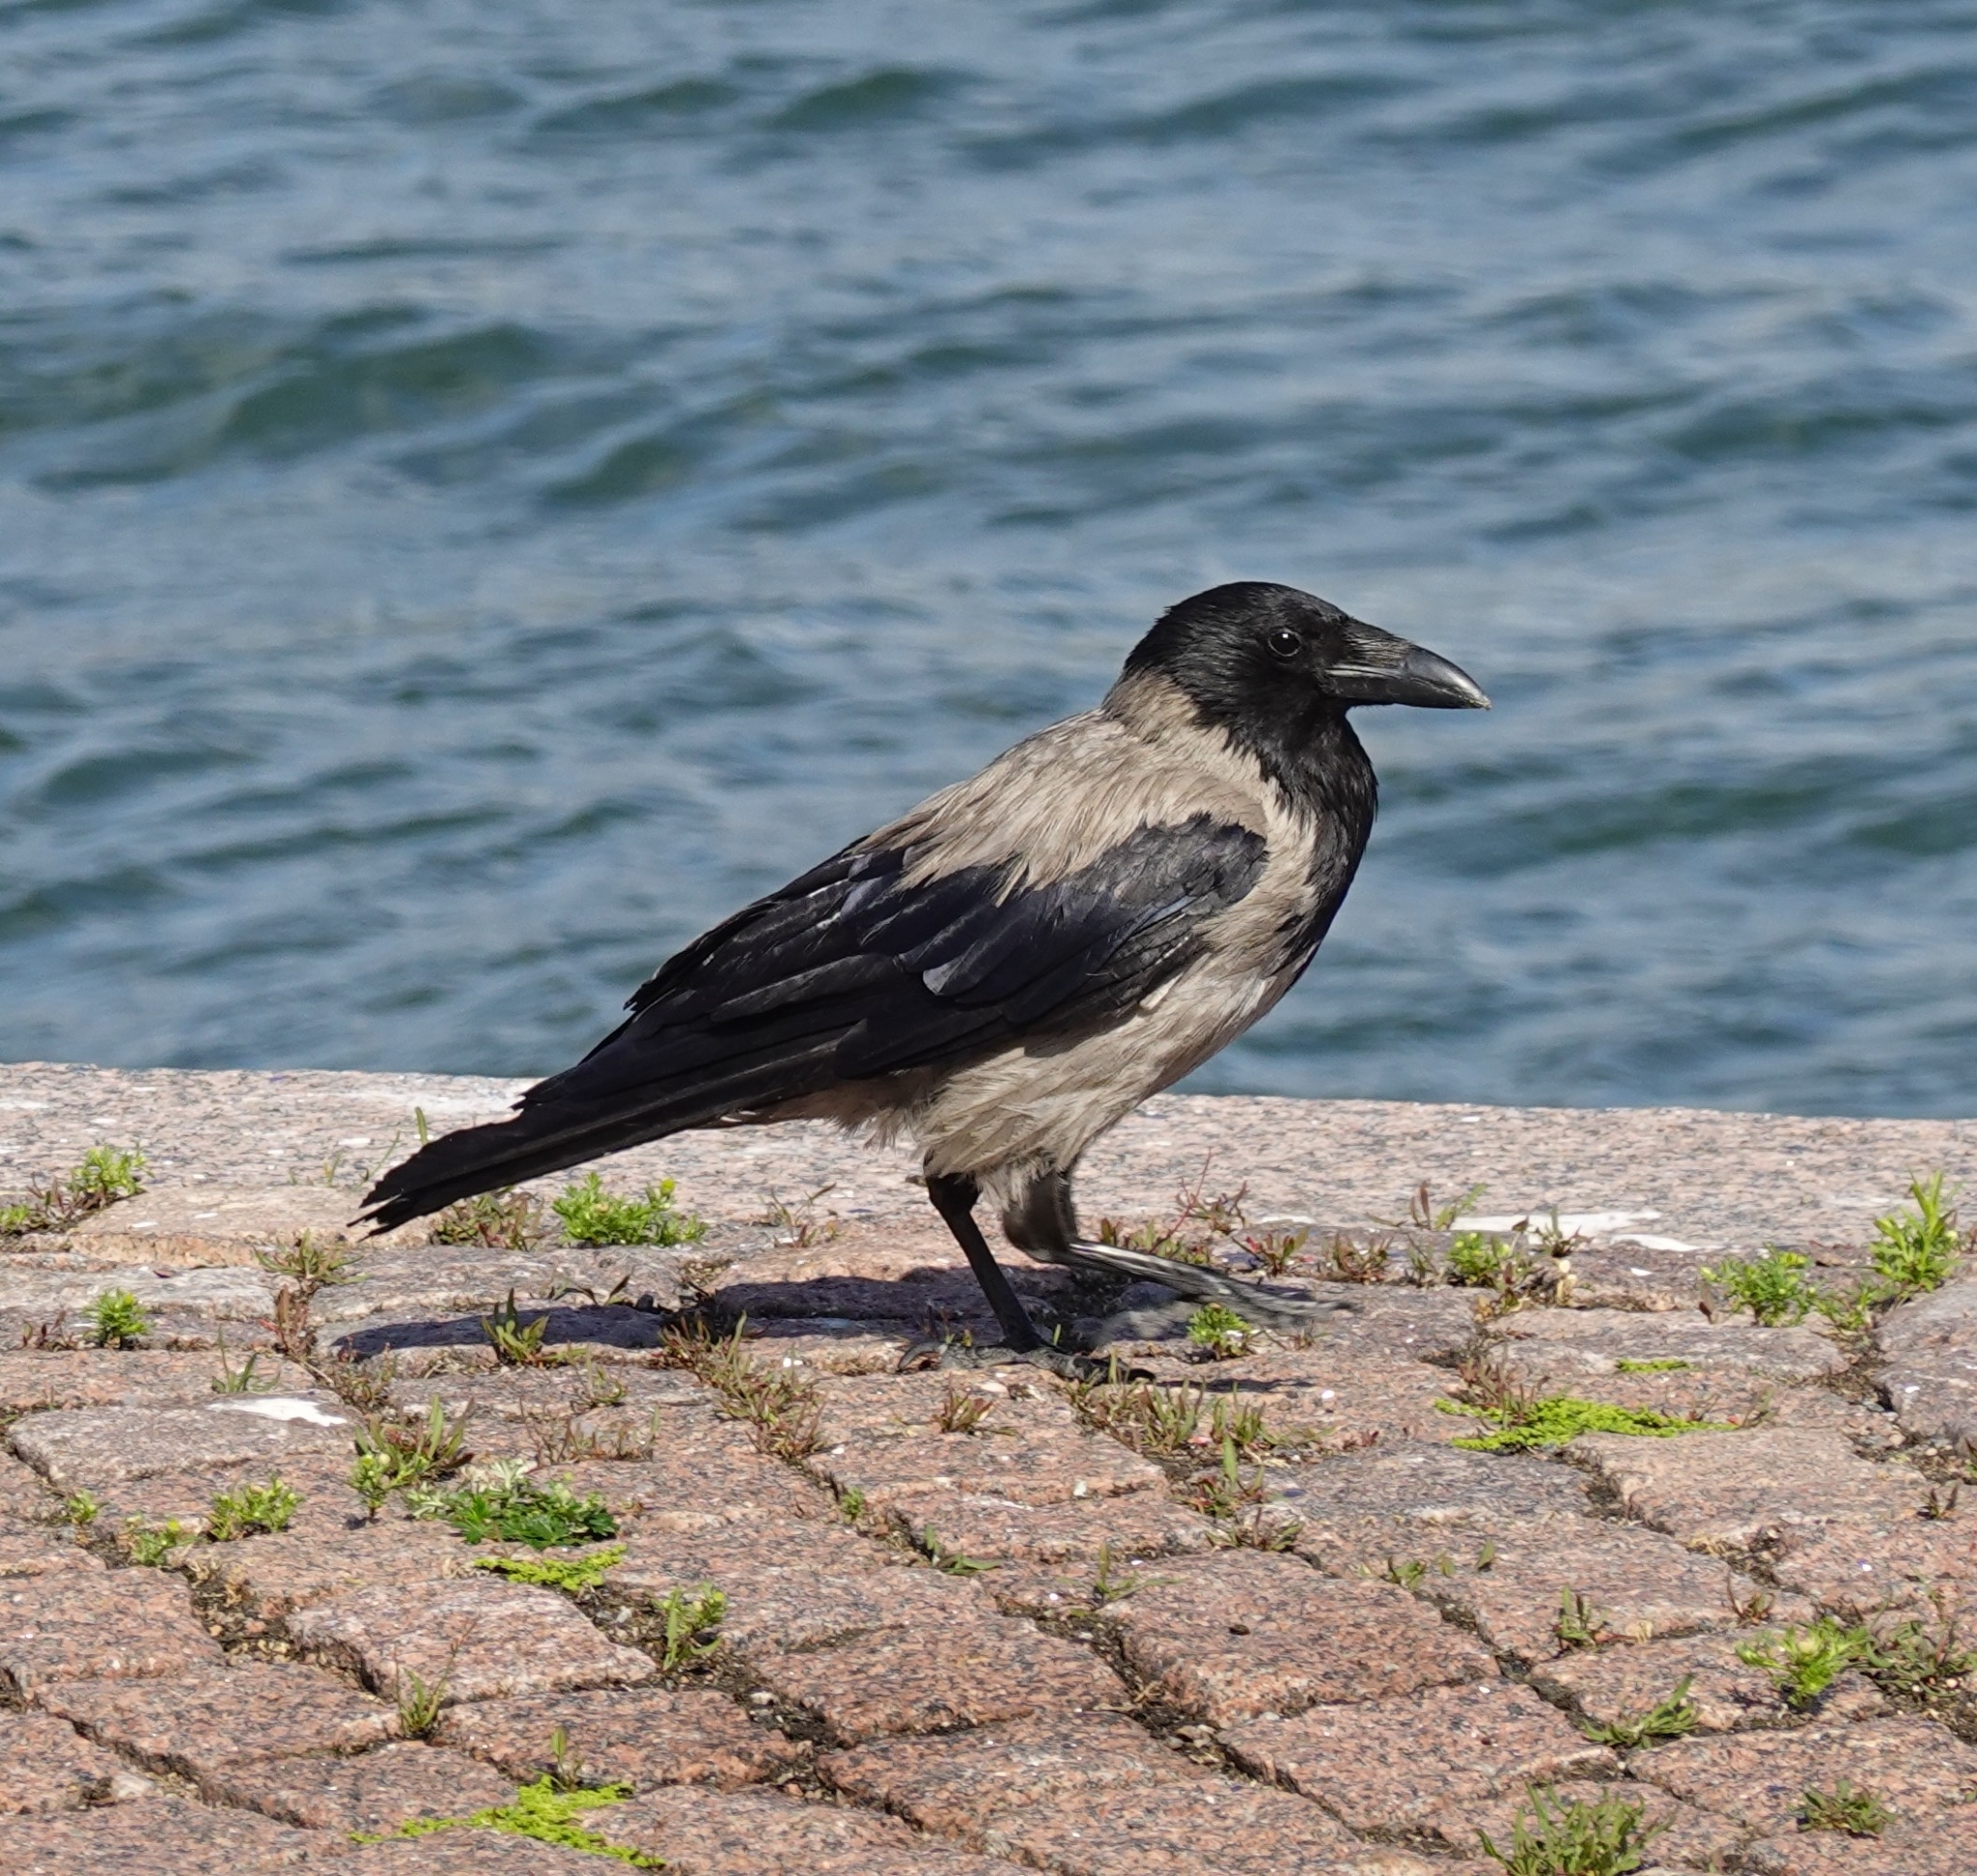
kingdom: Animalia
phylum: Chordata
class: Aves
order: Passeriformes
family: Corvidae
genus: Corvus
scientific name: Corvus cornix
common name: Hooded crow
